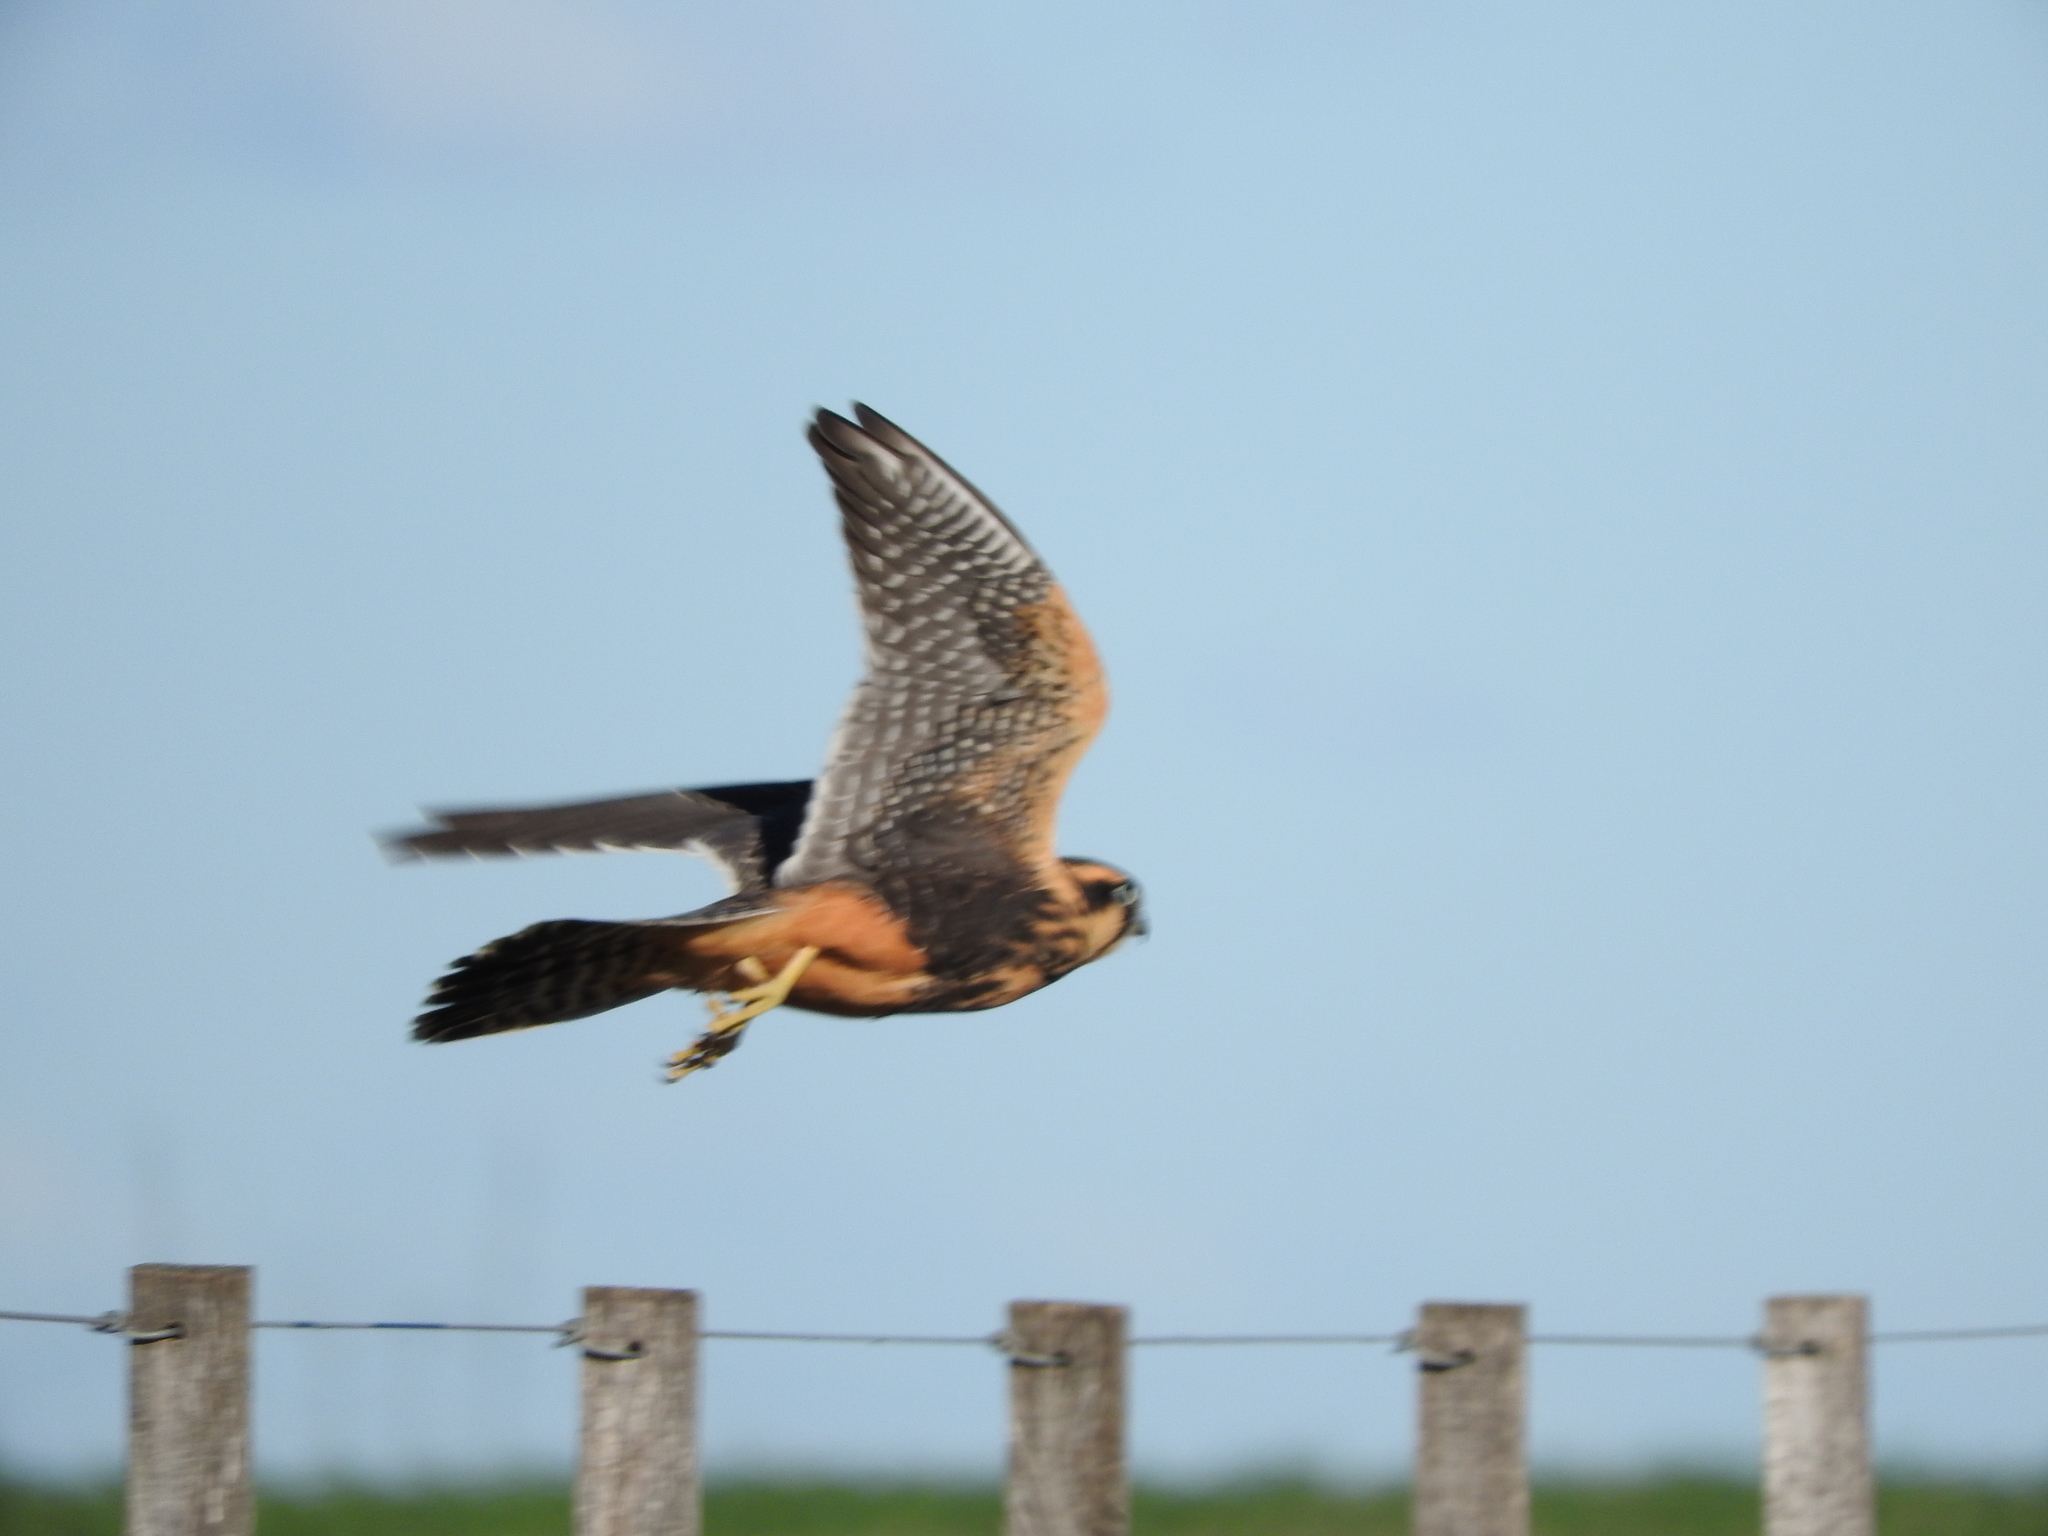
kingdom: Animalia
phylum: Chordata
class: Aves
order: Falconiformes
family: Falconidae
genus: Falco
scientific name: Falco femoralis
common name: Aplomado falcon
